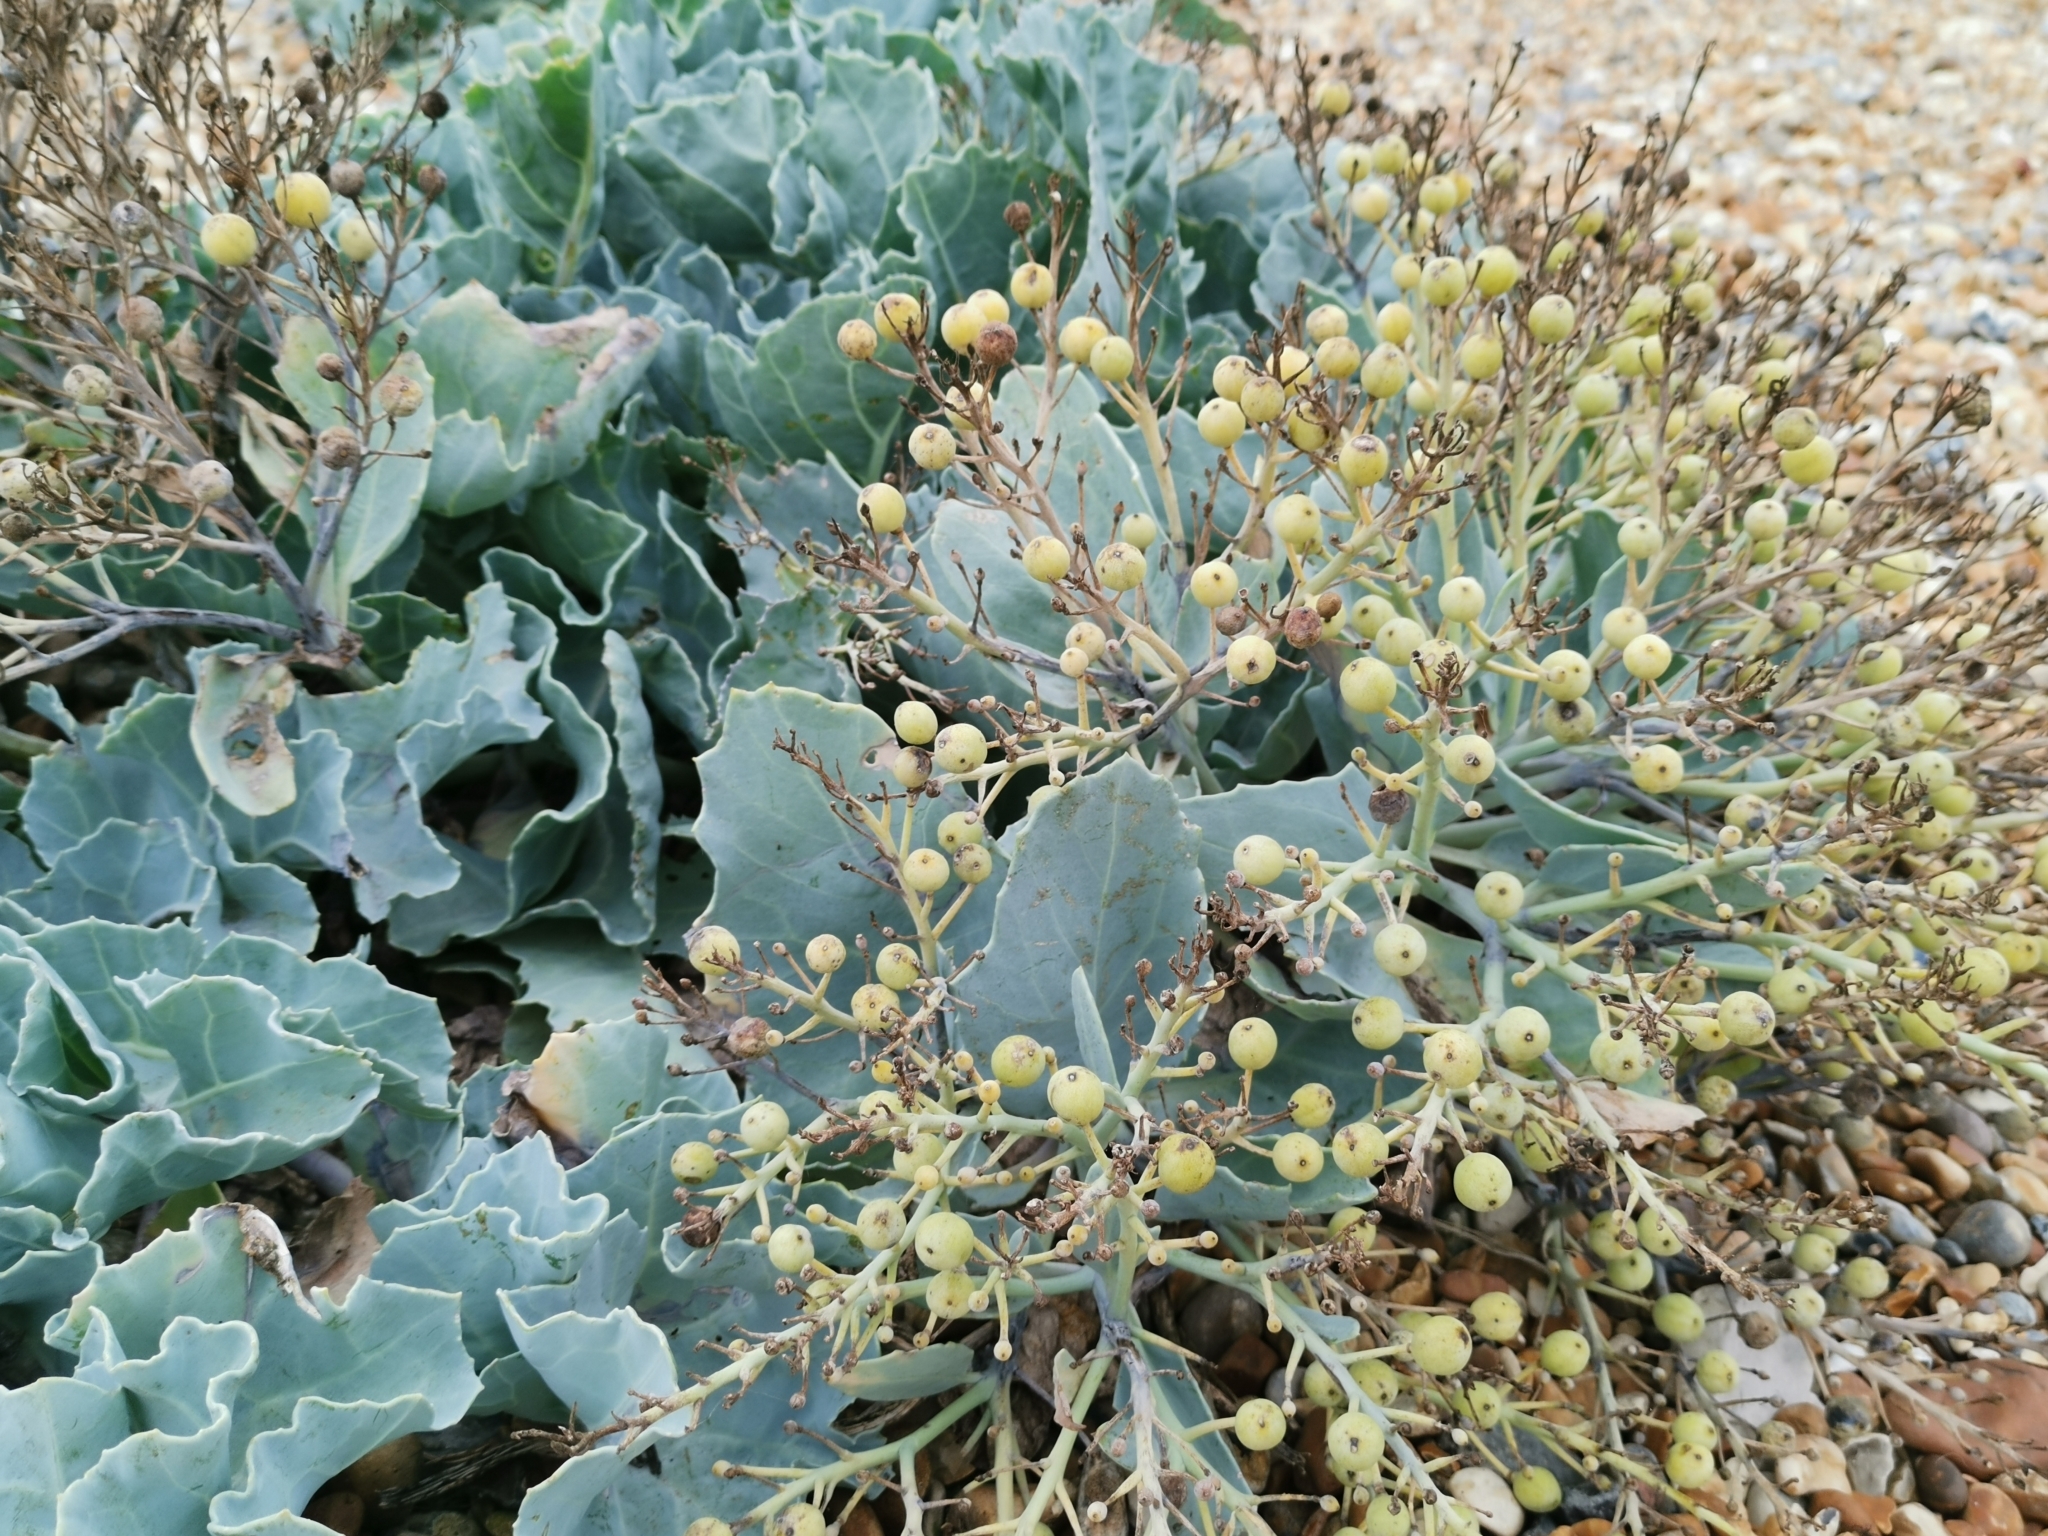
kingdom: Plantae
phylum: Tracheophyta
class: Magnoliopsida
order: Brassicales
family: Brassicaceae
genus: Crambe
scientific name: Crambe maritima
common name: Sea-kale
